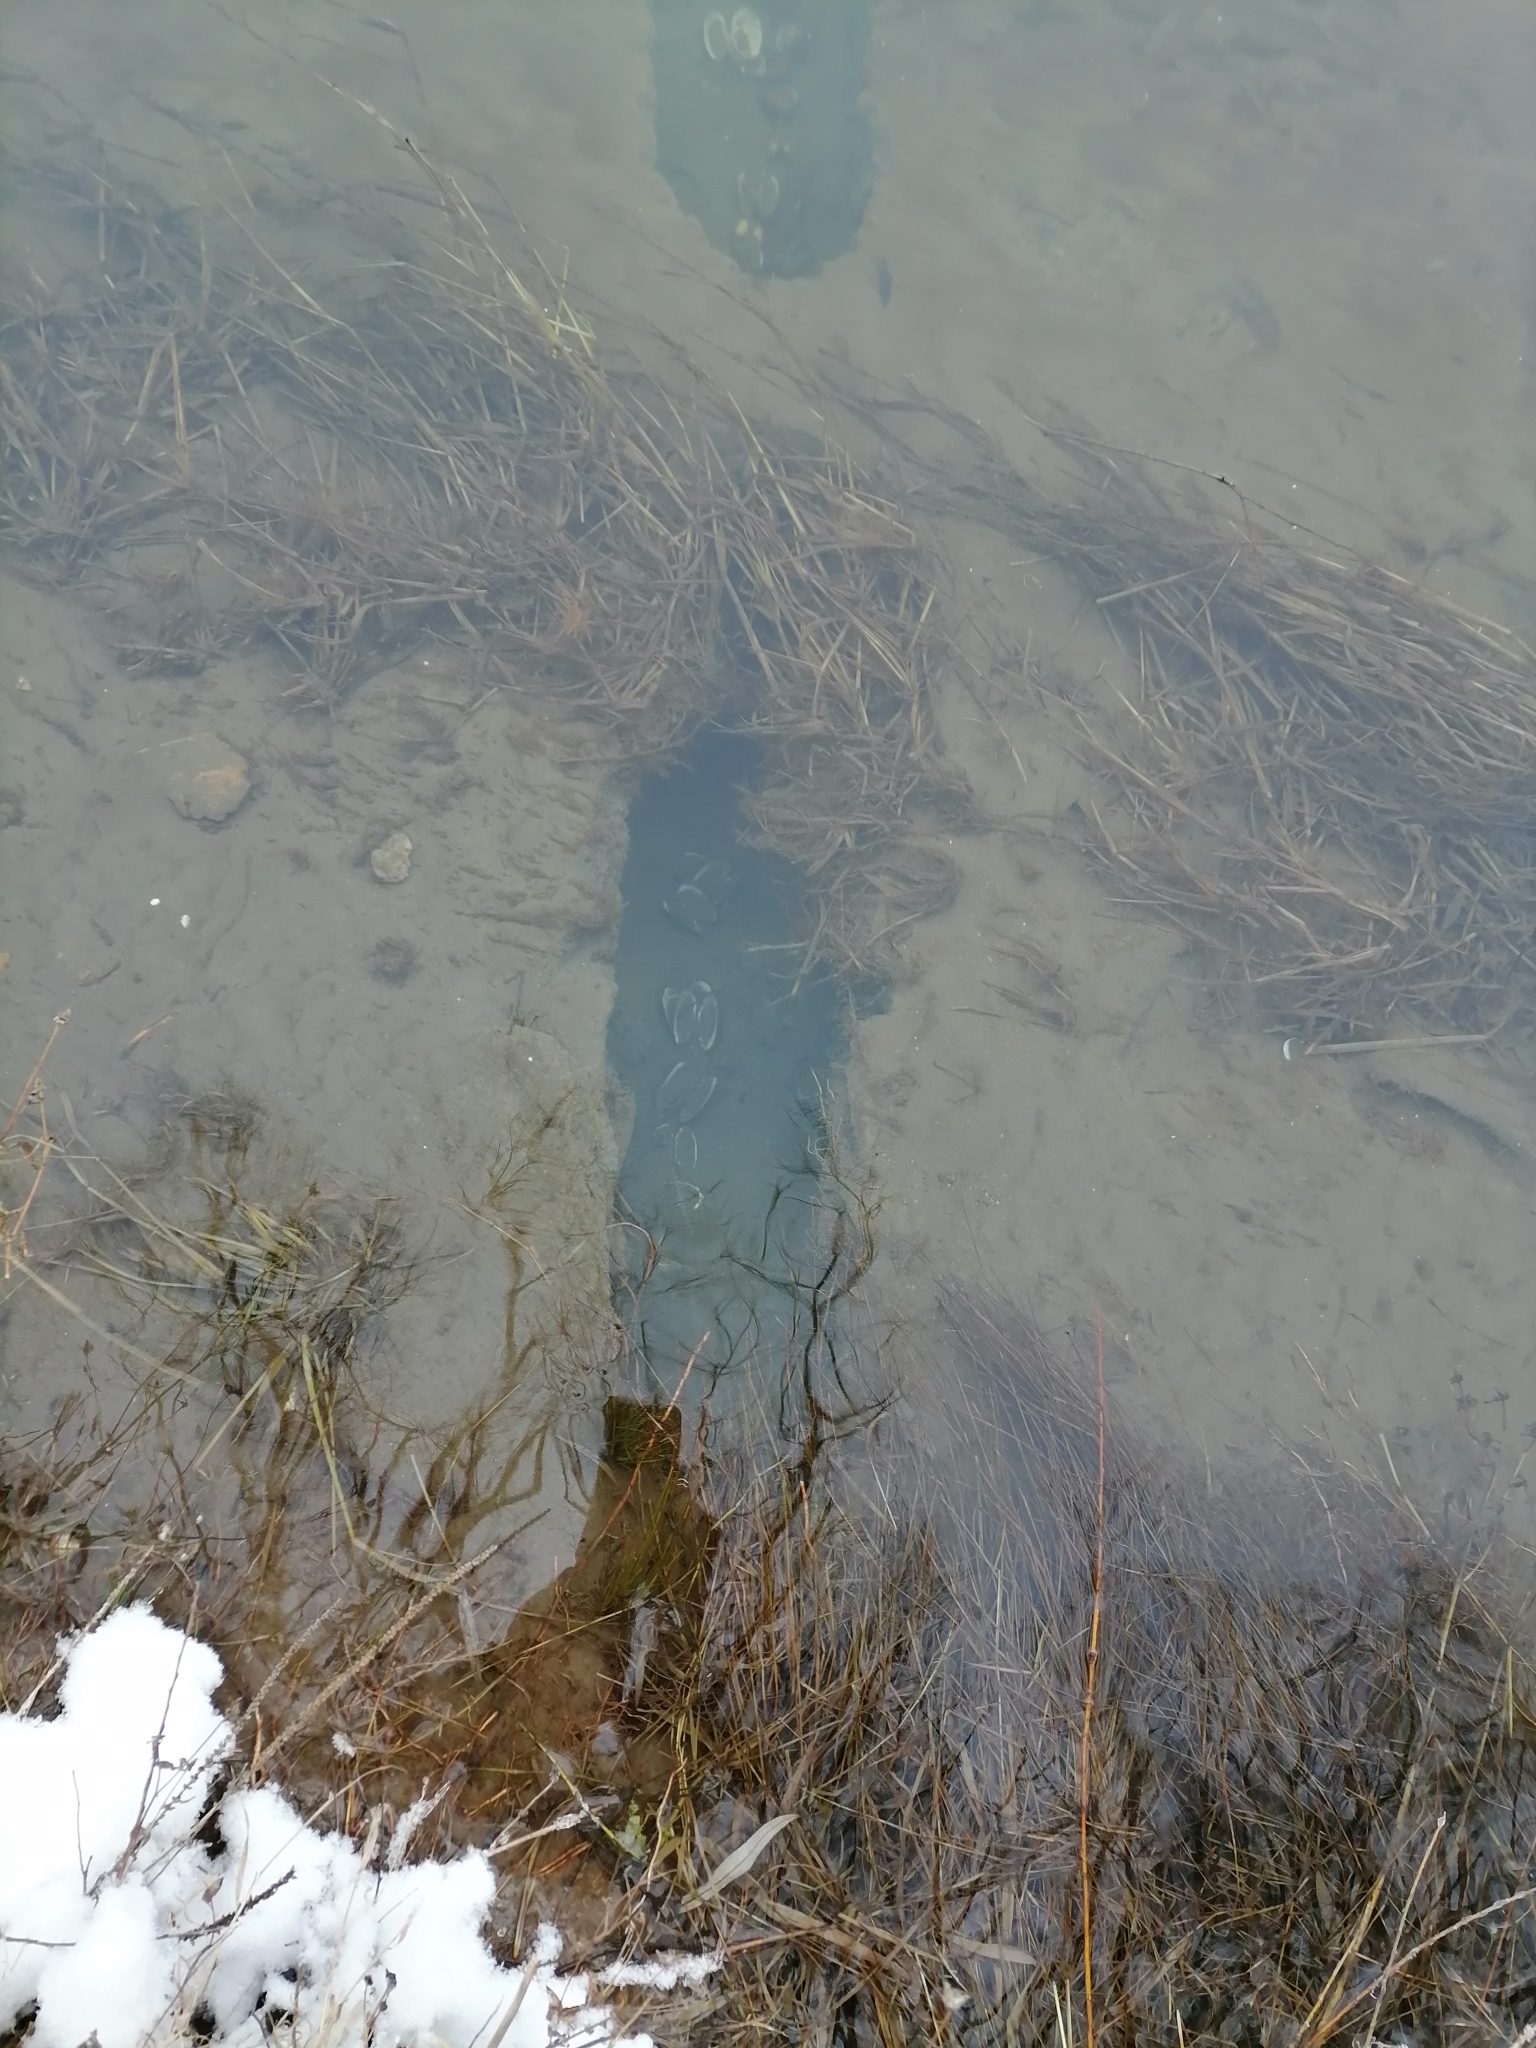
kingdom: Animalia
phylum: Chordata
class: Mammalia
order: Rodentia
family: Cricetidae
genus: Ondatra
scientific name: Ondatra zibethicus
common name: Muskrat
